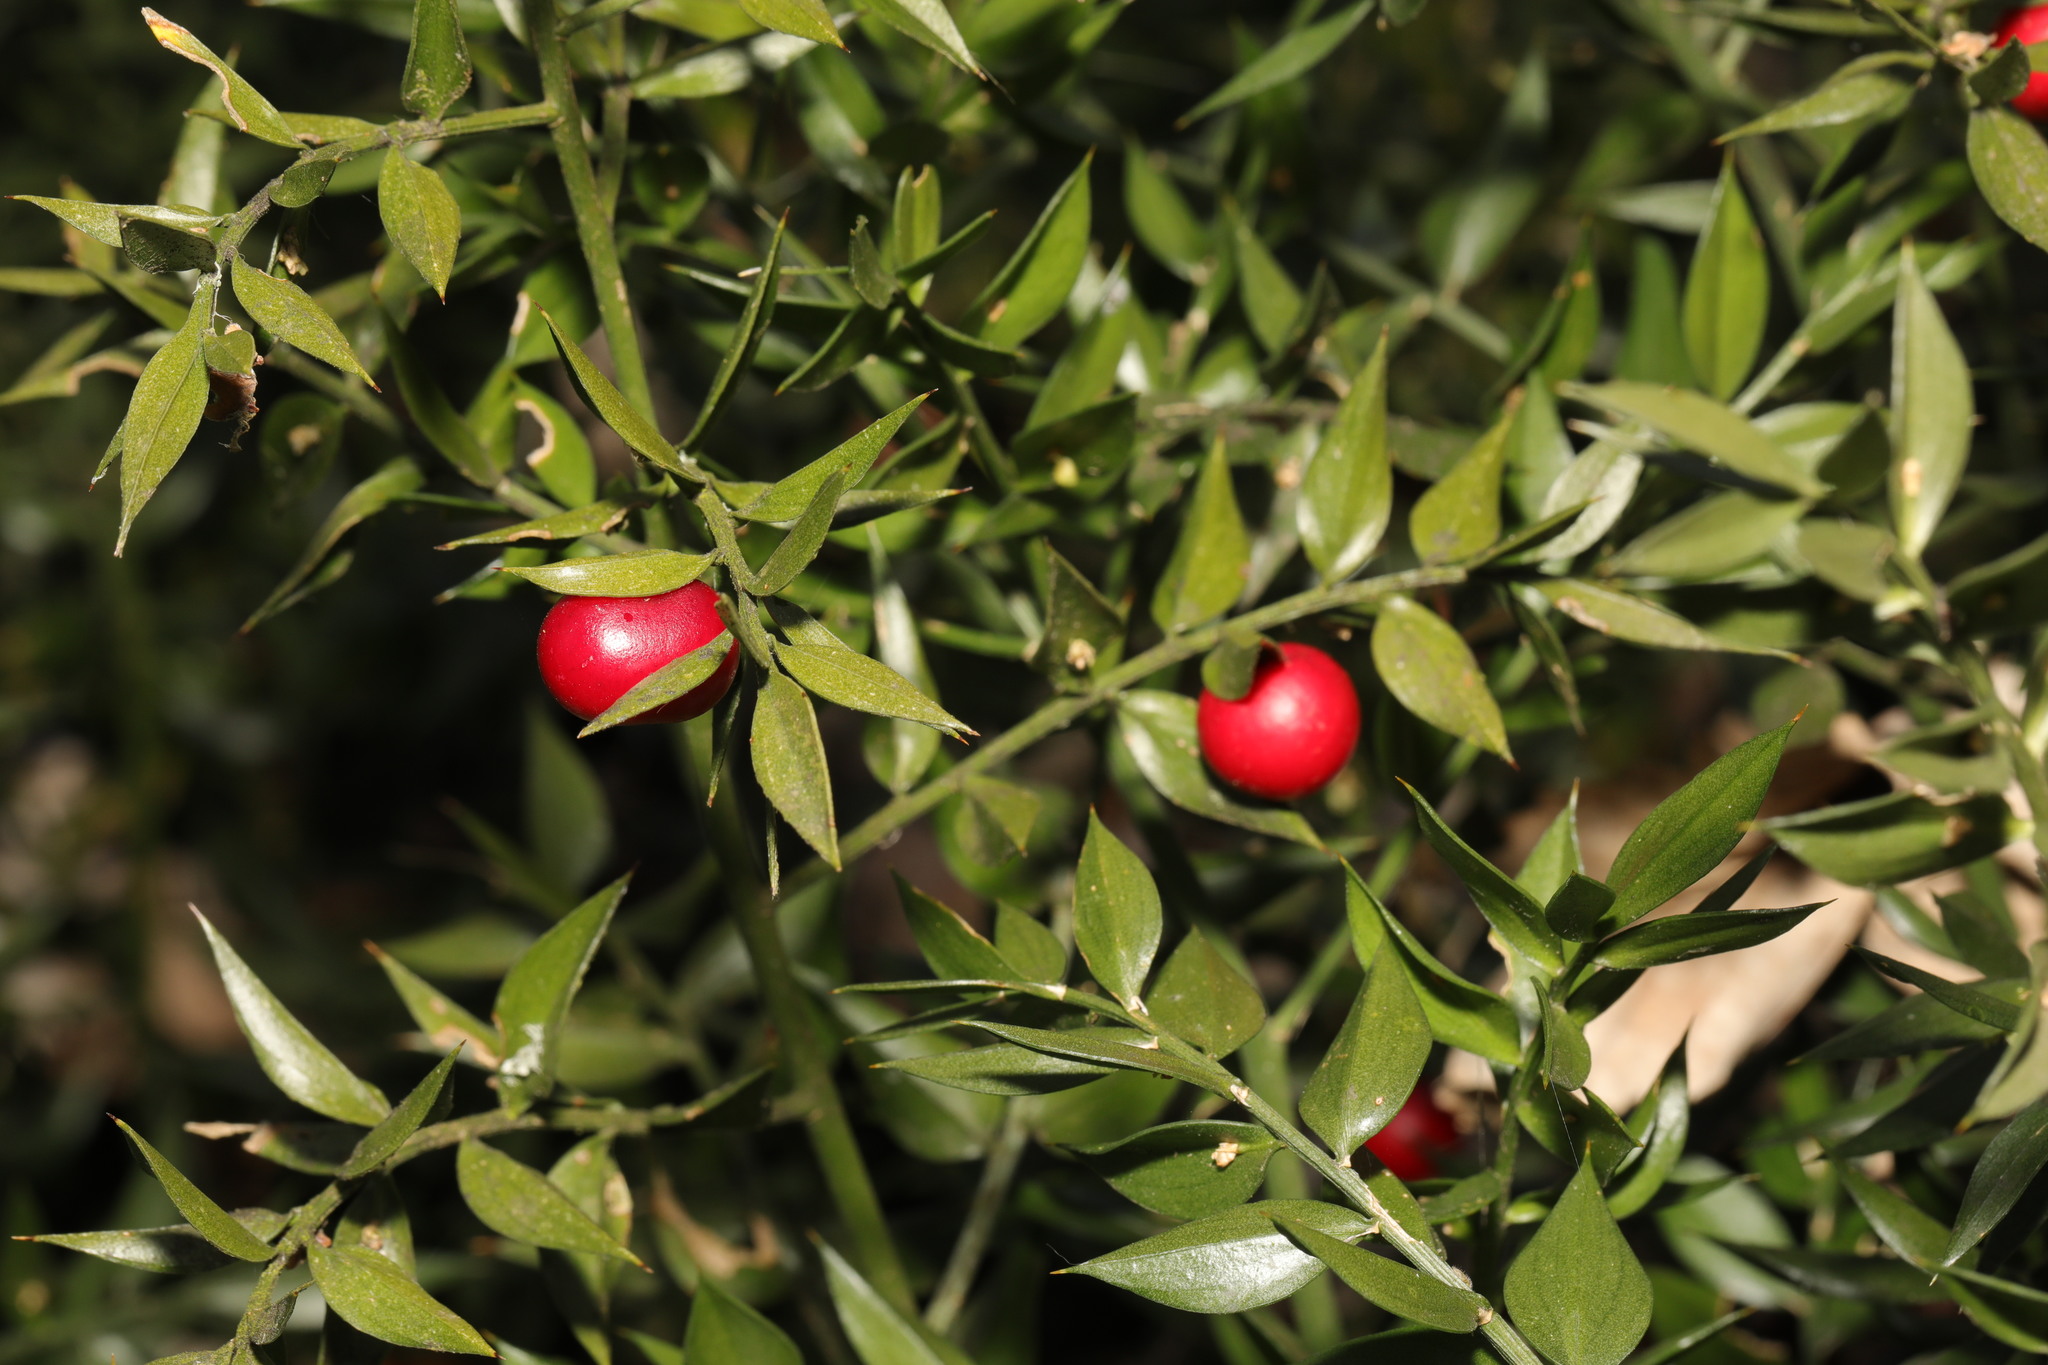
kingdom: Plantae
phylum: Tracheophyta
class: Liliopsida
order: Asparagales
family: Asparagaceae
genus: Ruscus
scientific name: Ruscus aculeatus
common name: Butcher's-broom
